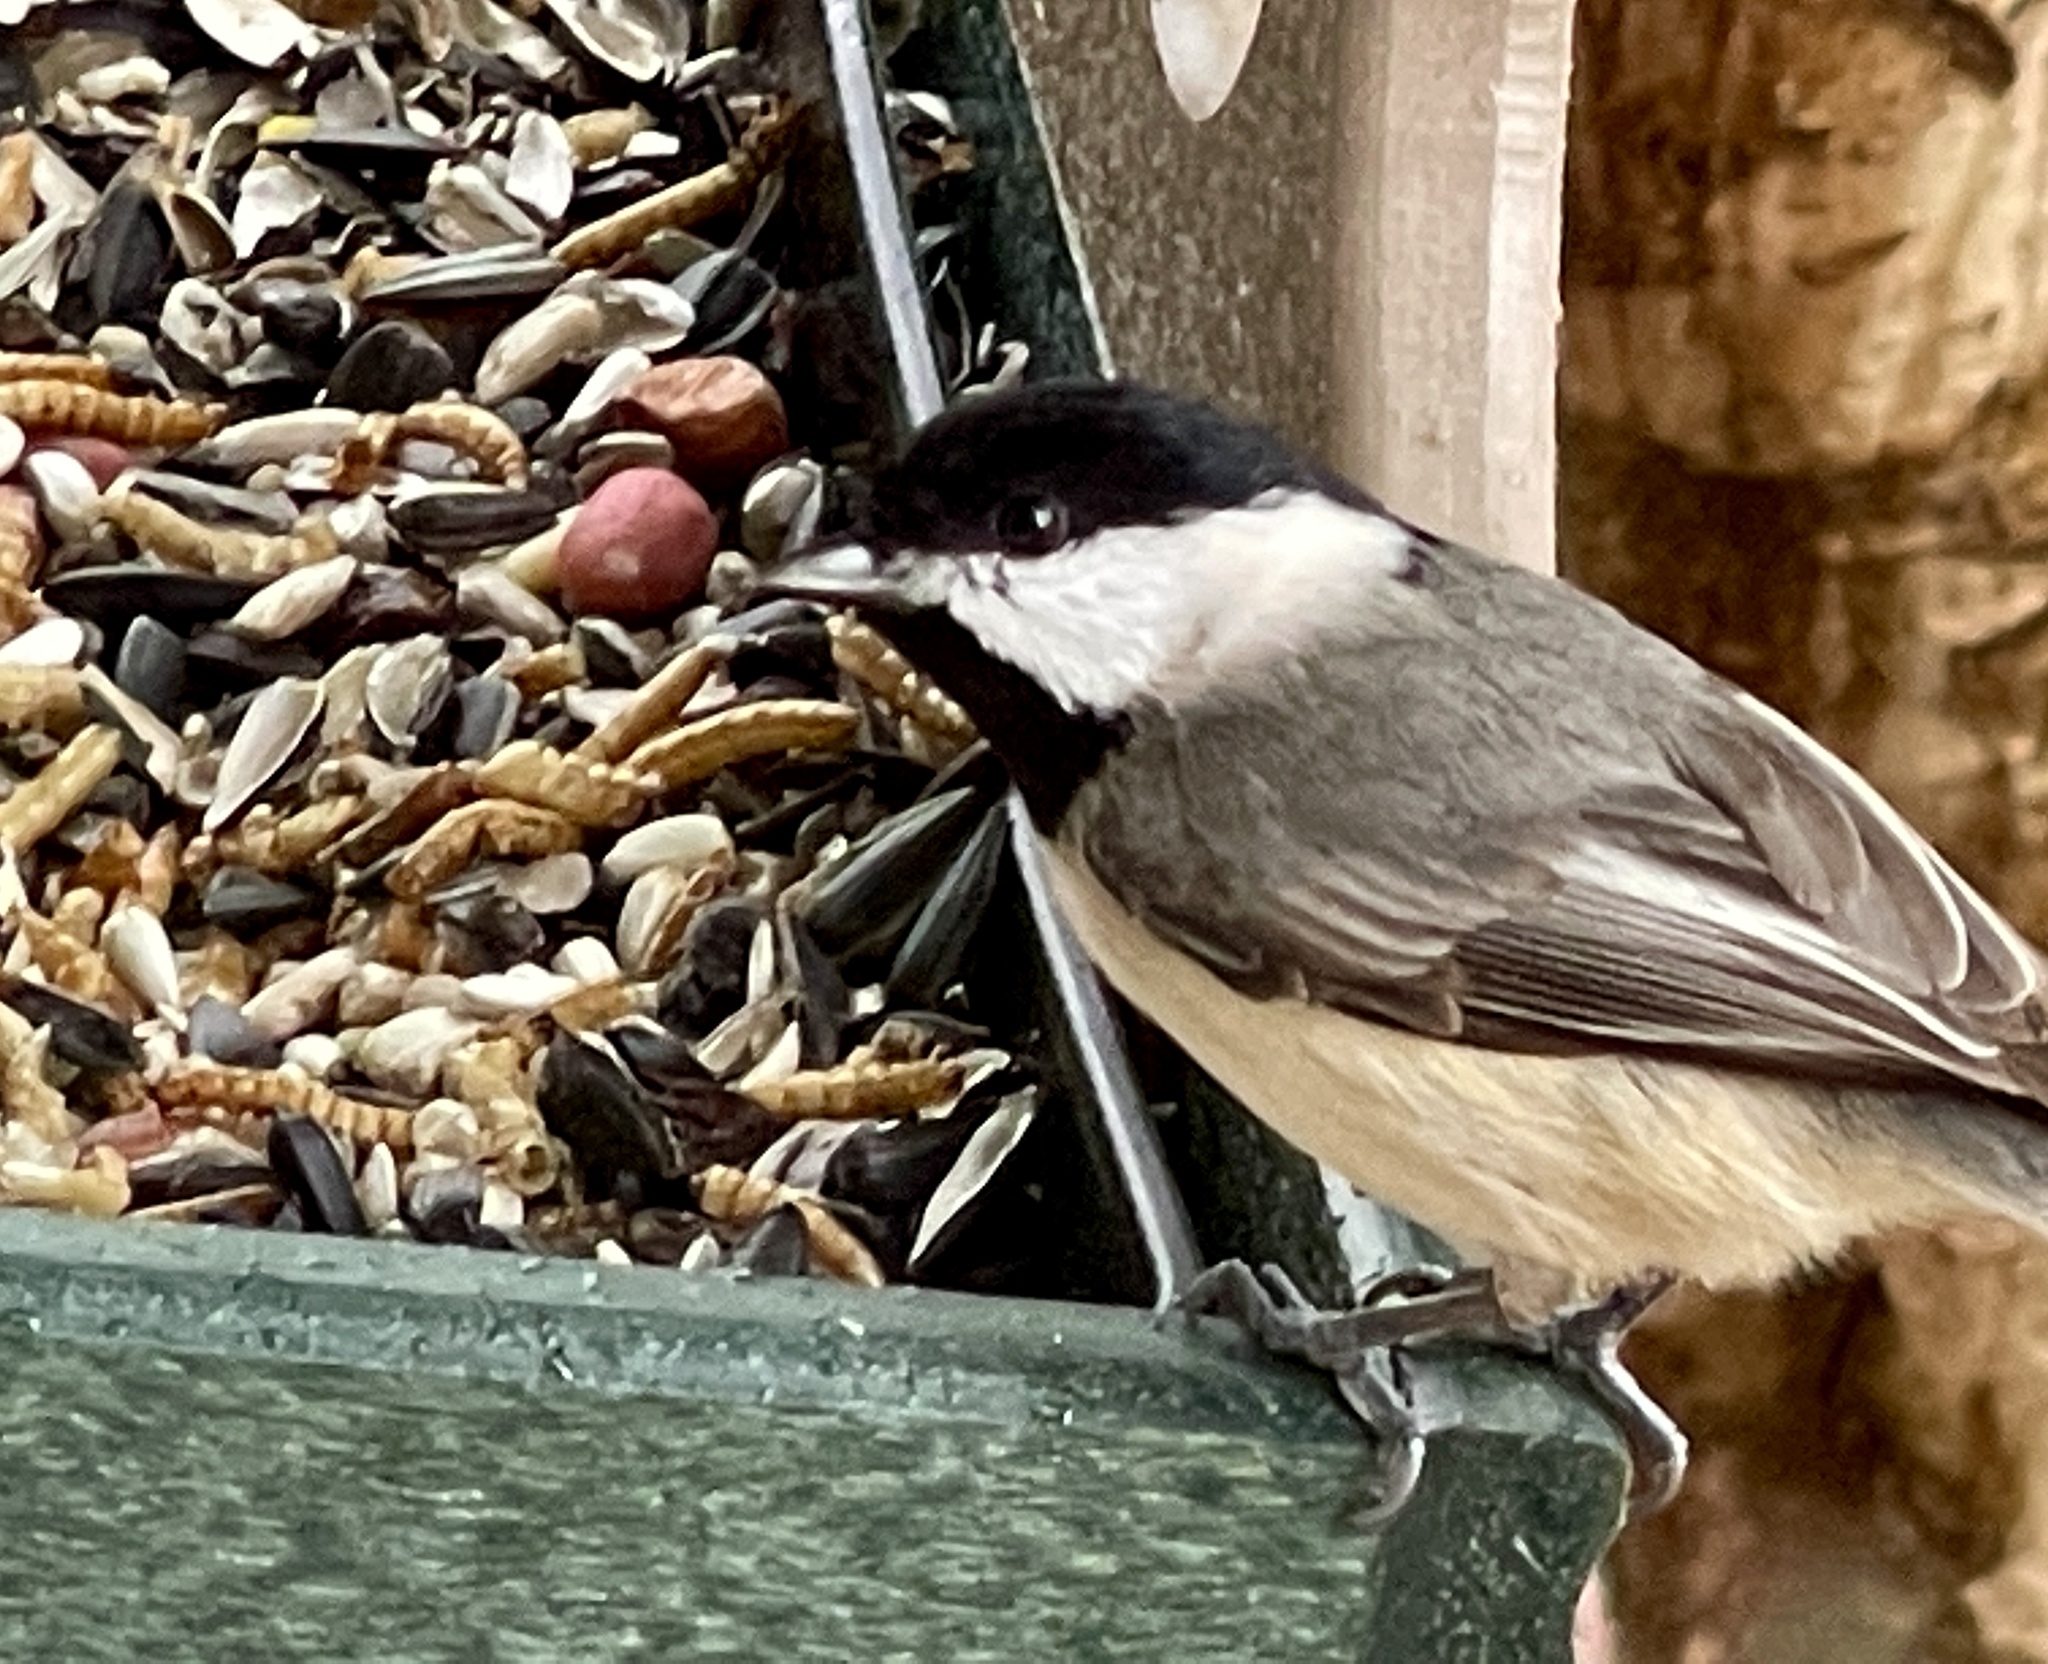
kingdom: Animalia
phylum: Chordata
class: Aves
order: Passeriformes
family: Paridae
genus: Poecile
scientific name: Poecile carolinensis
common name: Carolina chickadee
